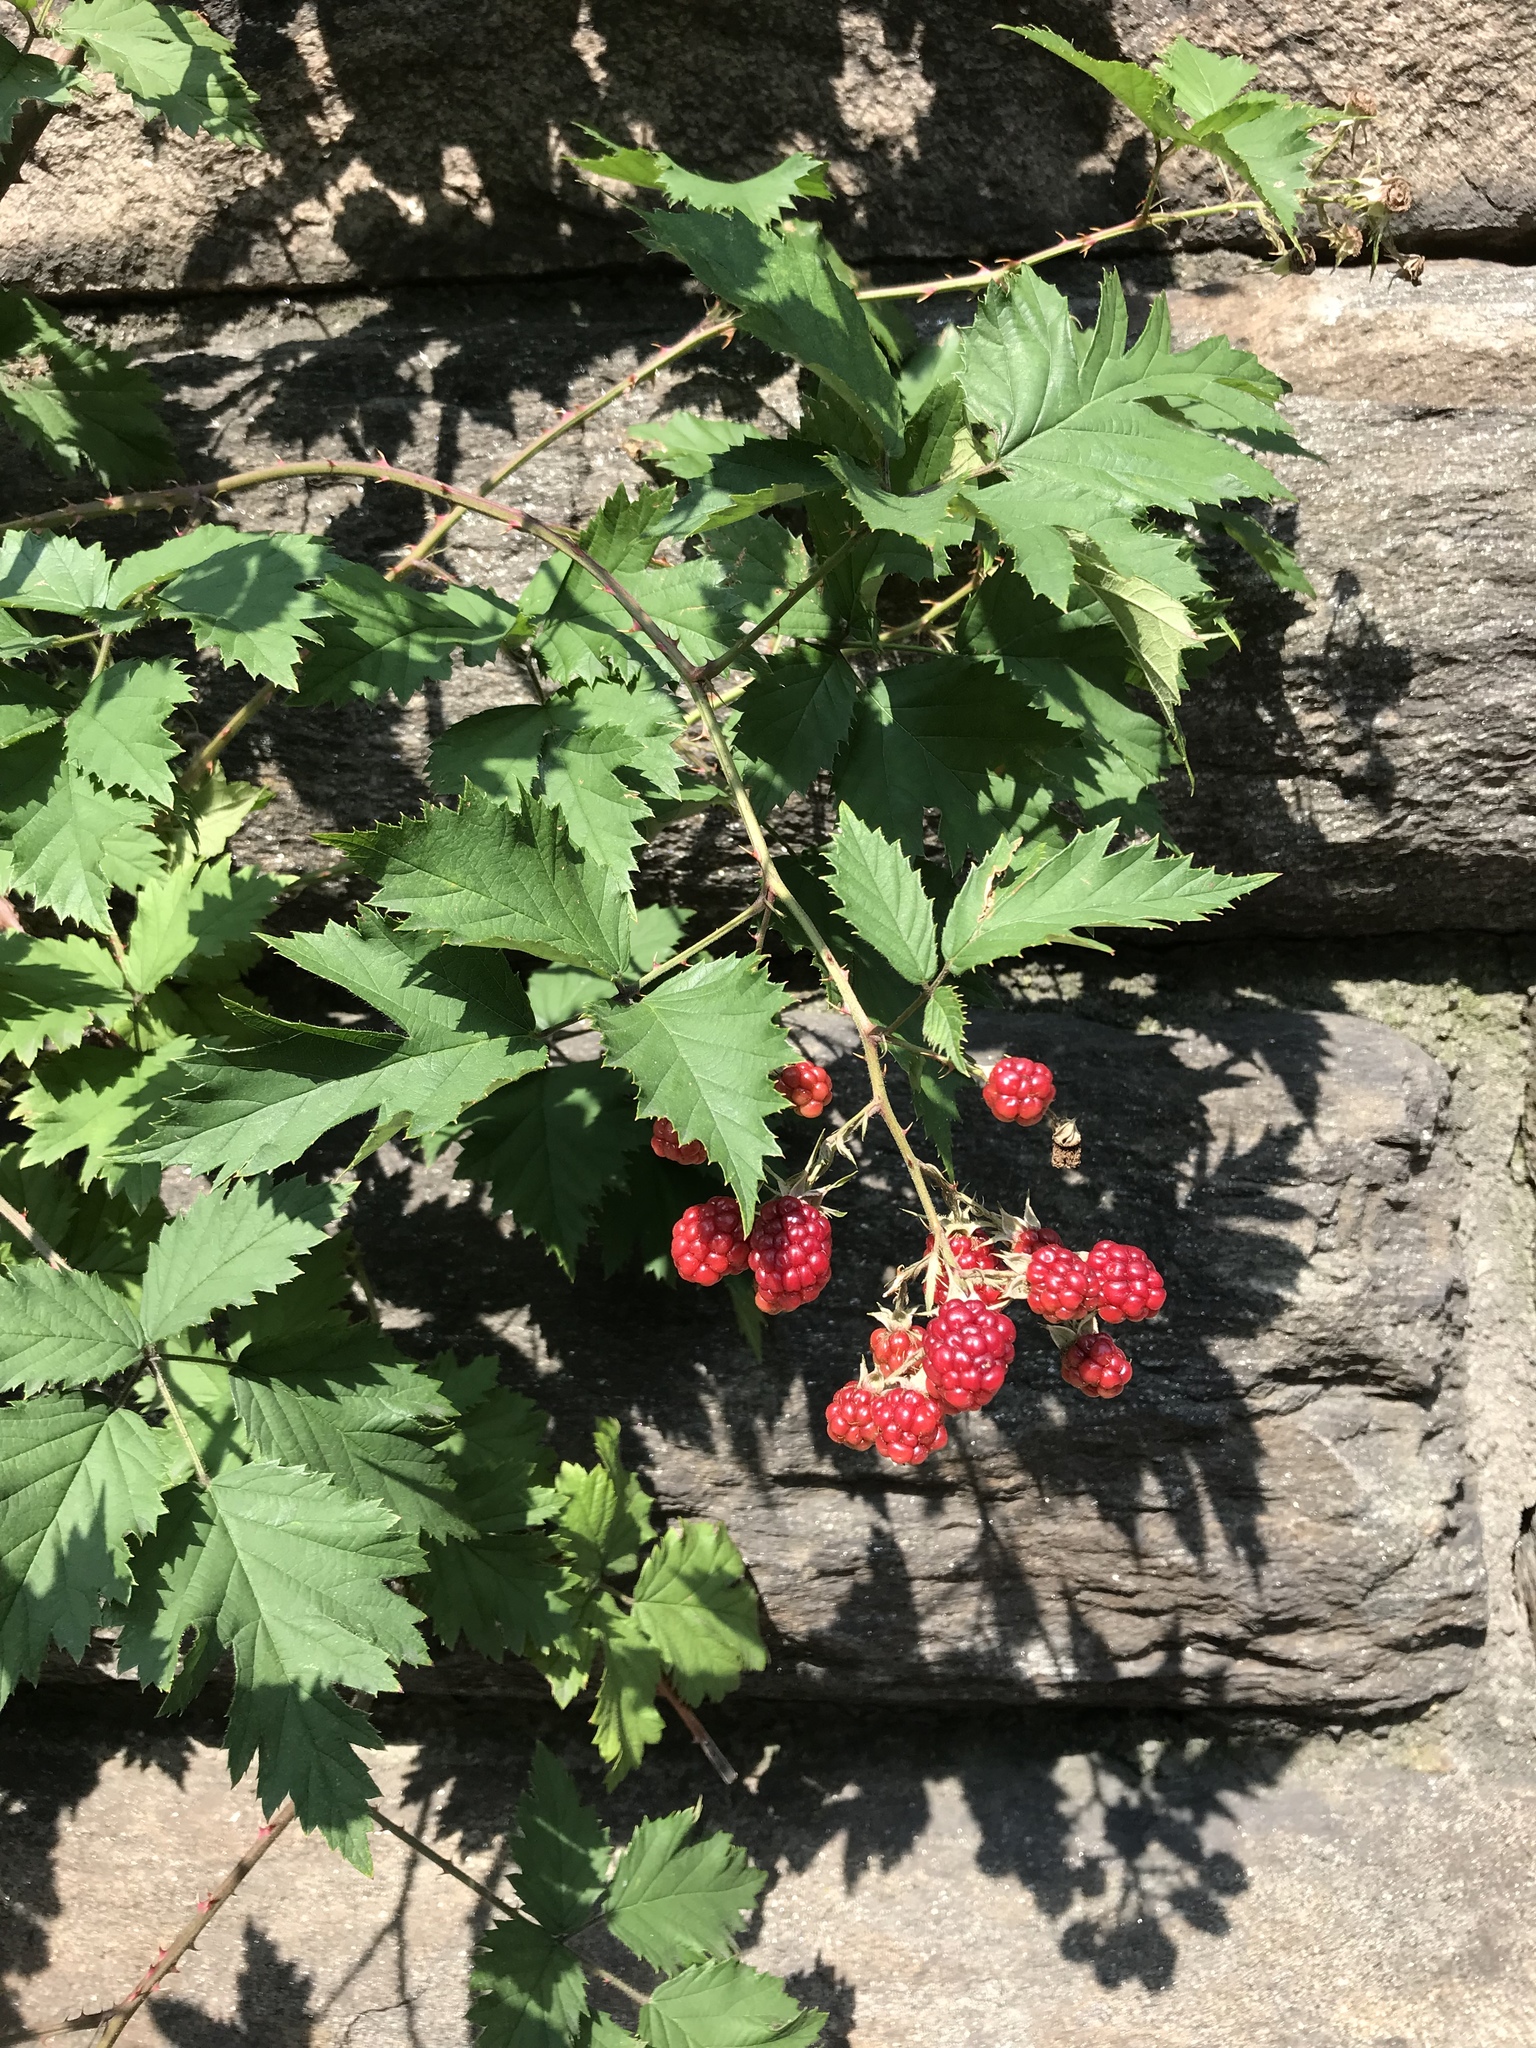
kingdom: Plantae
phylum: Tracheophyta
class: Magnoliopsida
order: Rosales
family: Rosaceae
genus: Rubus
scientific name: Rubus laciniatus
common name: Evergreen blackberry
